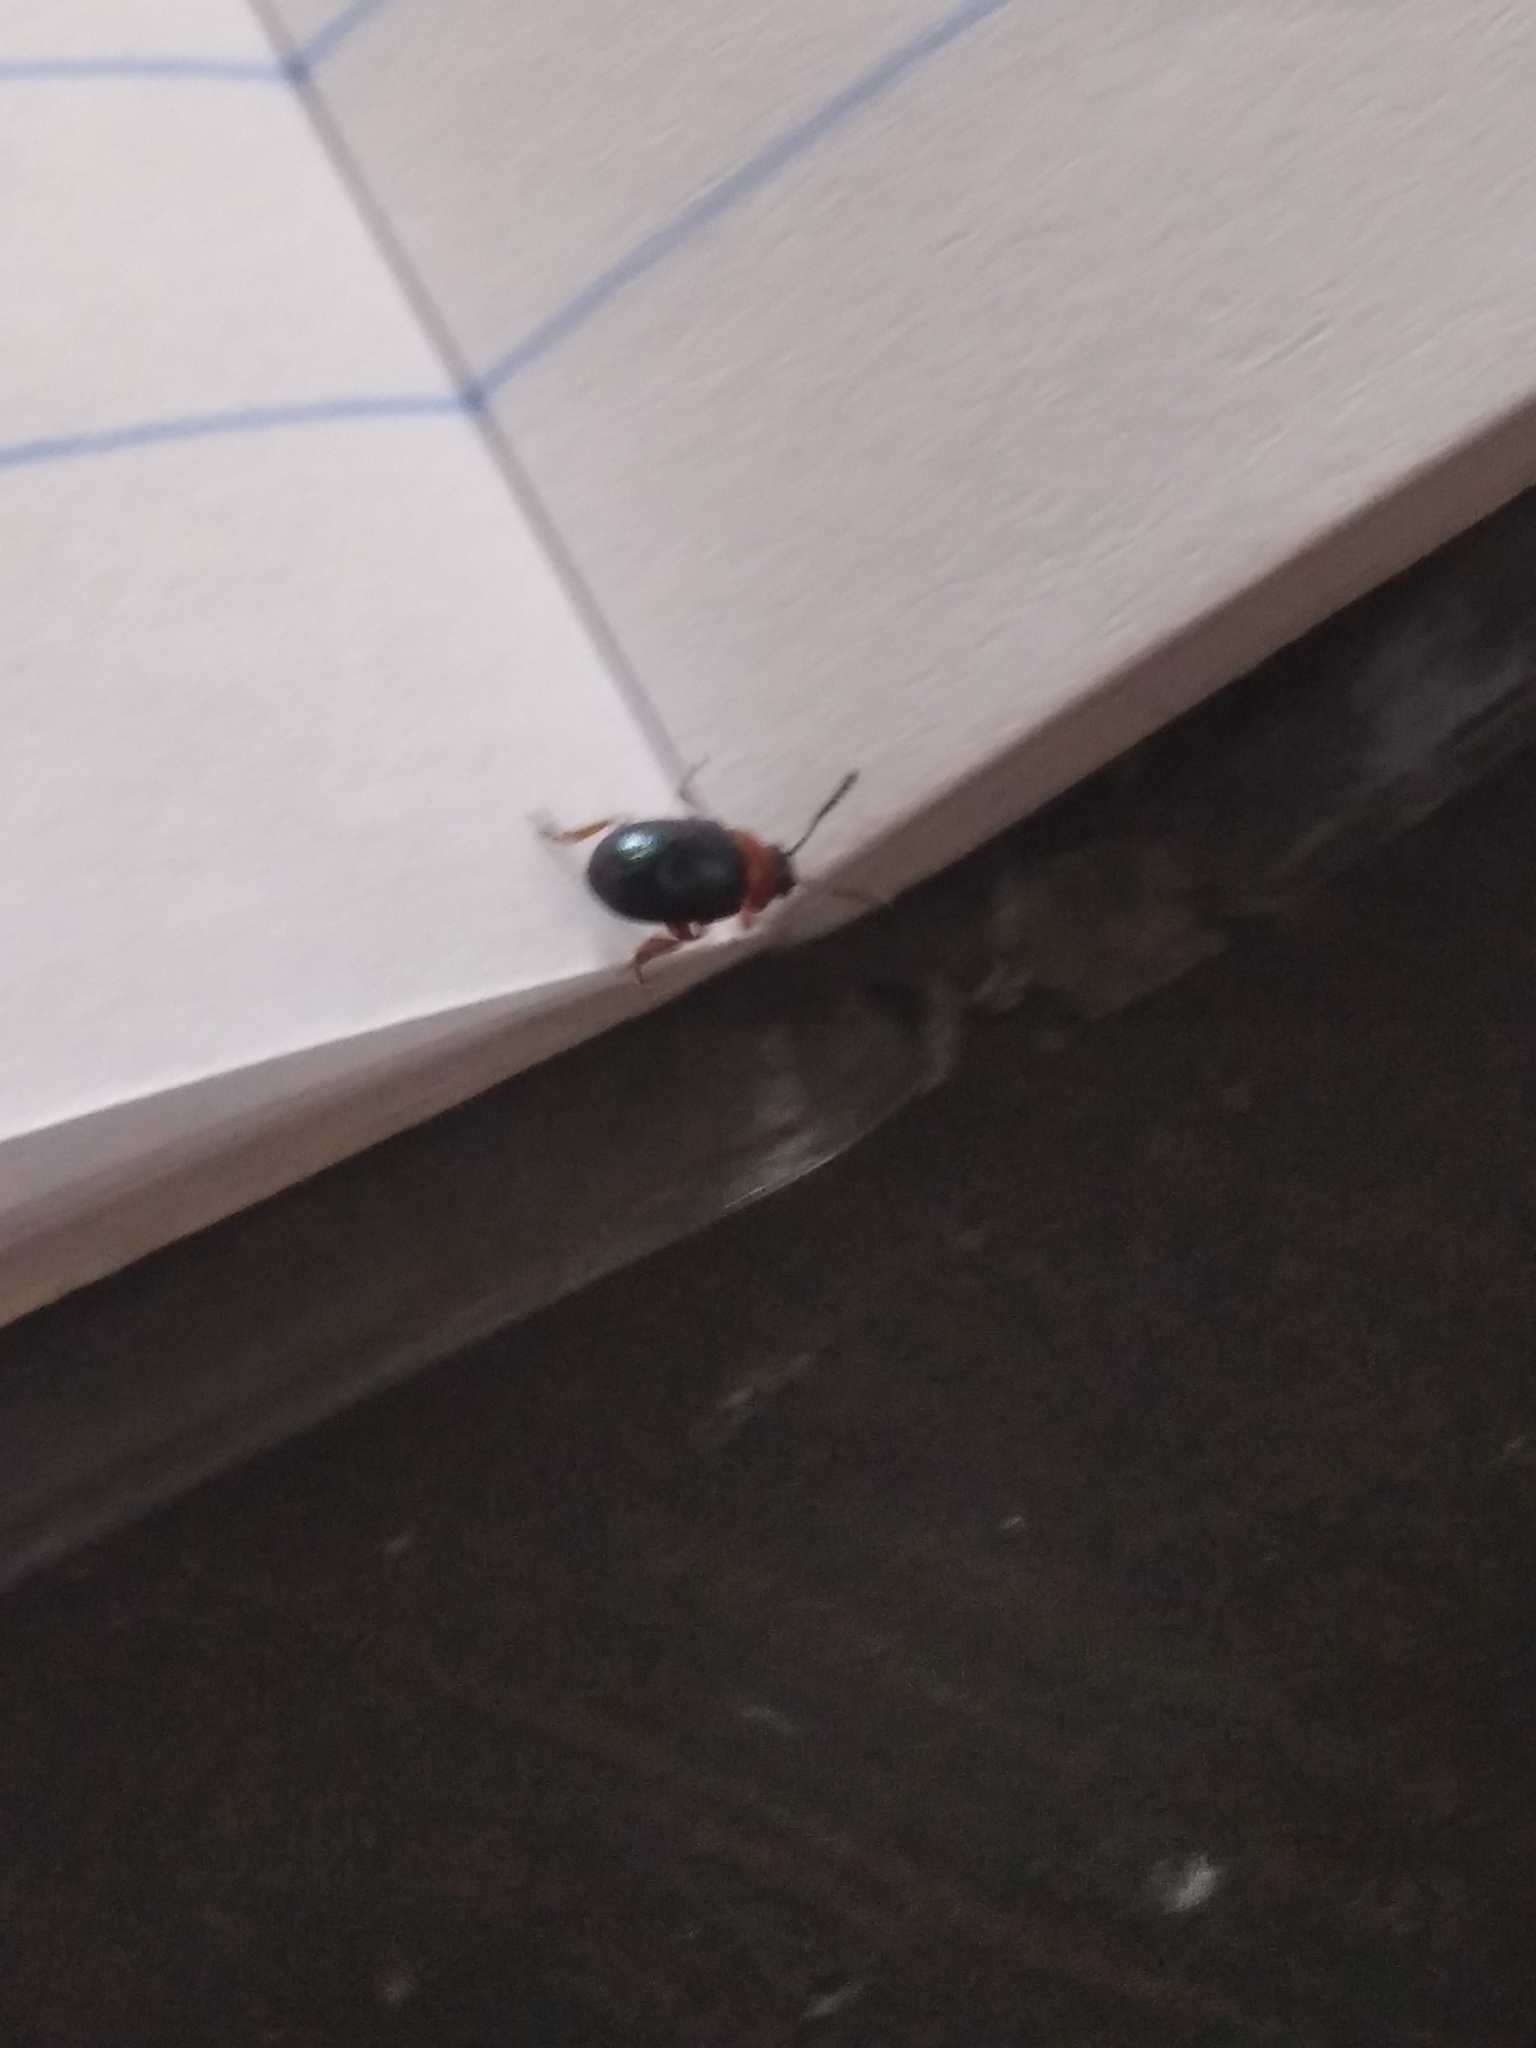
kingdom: Animalia
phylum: Arthropoda
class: Insecta
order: Coleoptera
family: Chrysomelidae
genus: Gastrophysa
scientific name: Gastrophysa polygoni
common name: Knotweed leaf beetle
